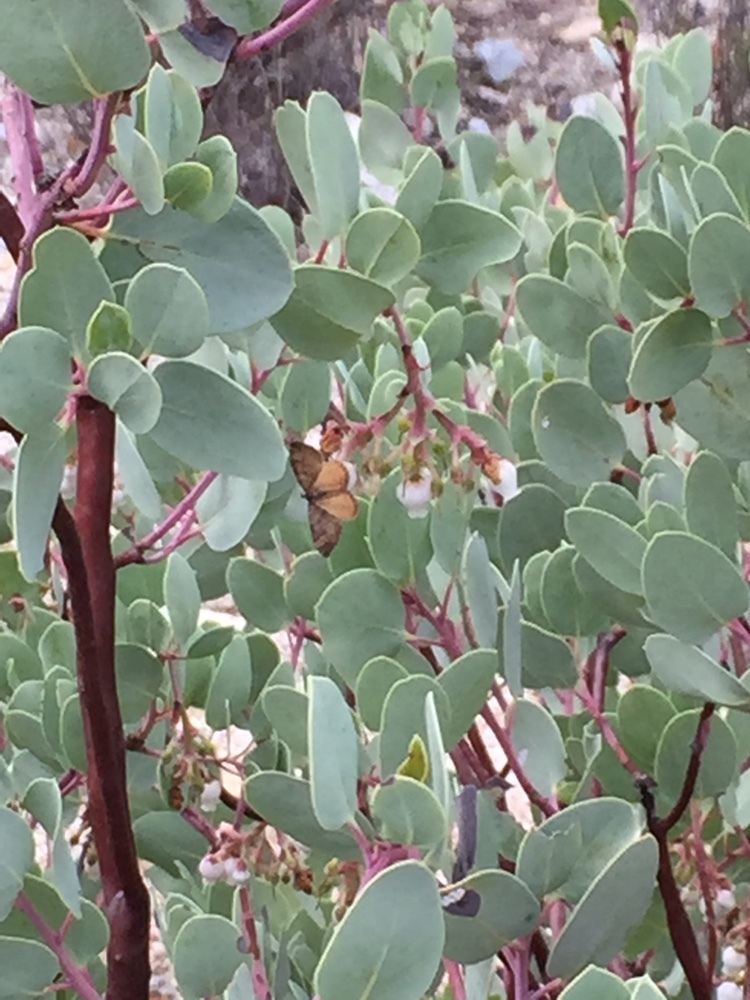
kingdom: Animalia
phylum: Arthropoda
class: Insecta
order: Lepidoptera
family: Geometridae
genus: Epirrhoe
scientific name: Epirrhoe plebeculata
